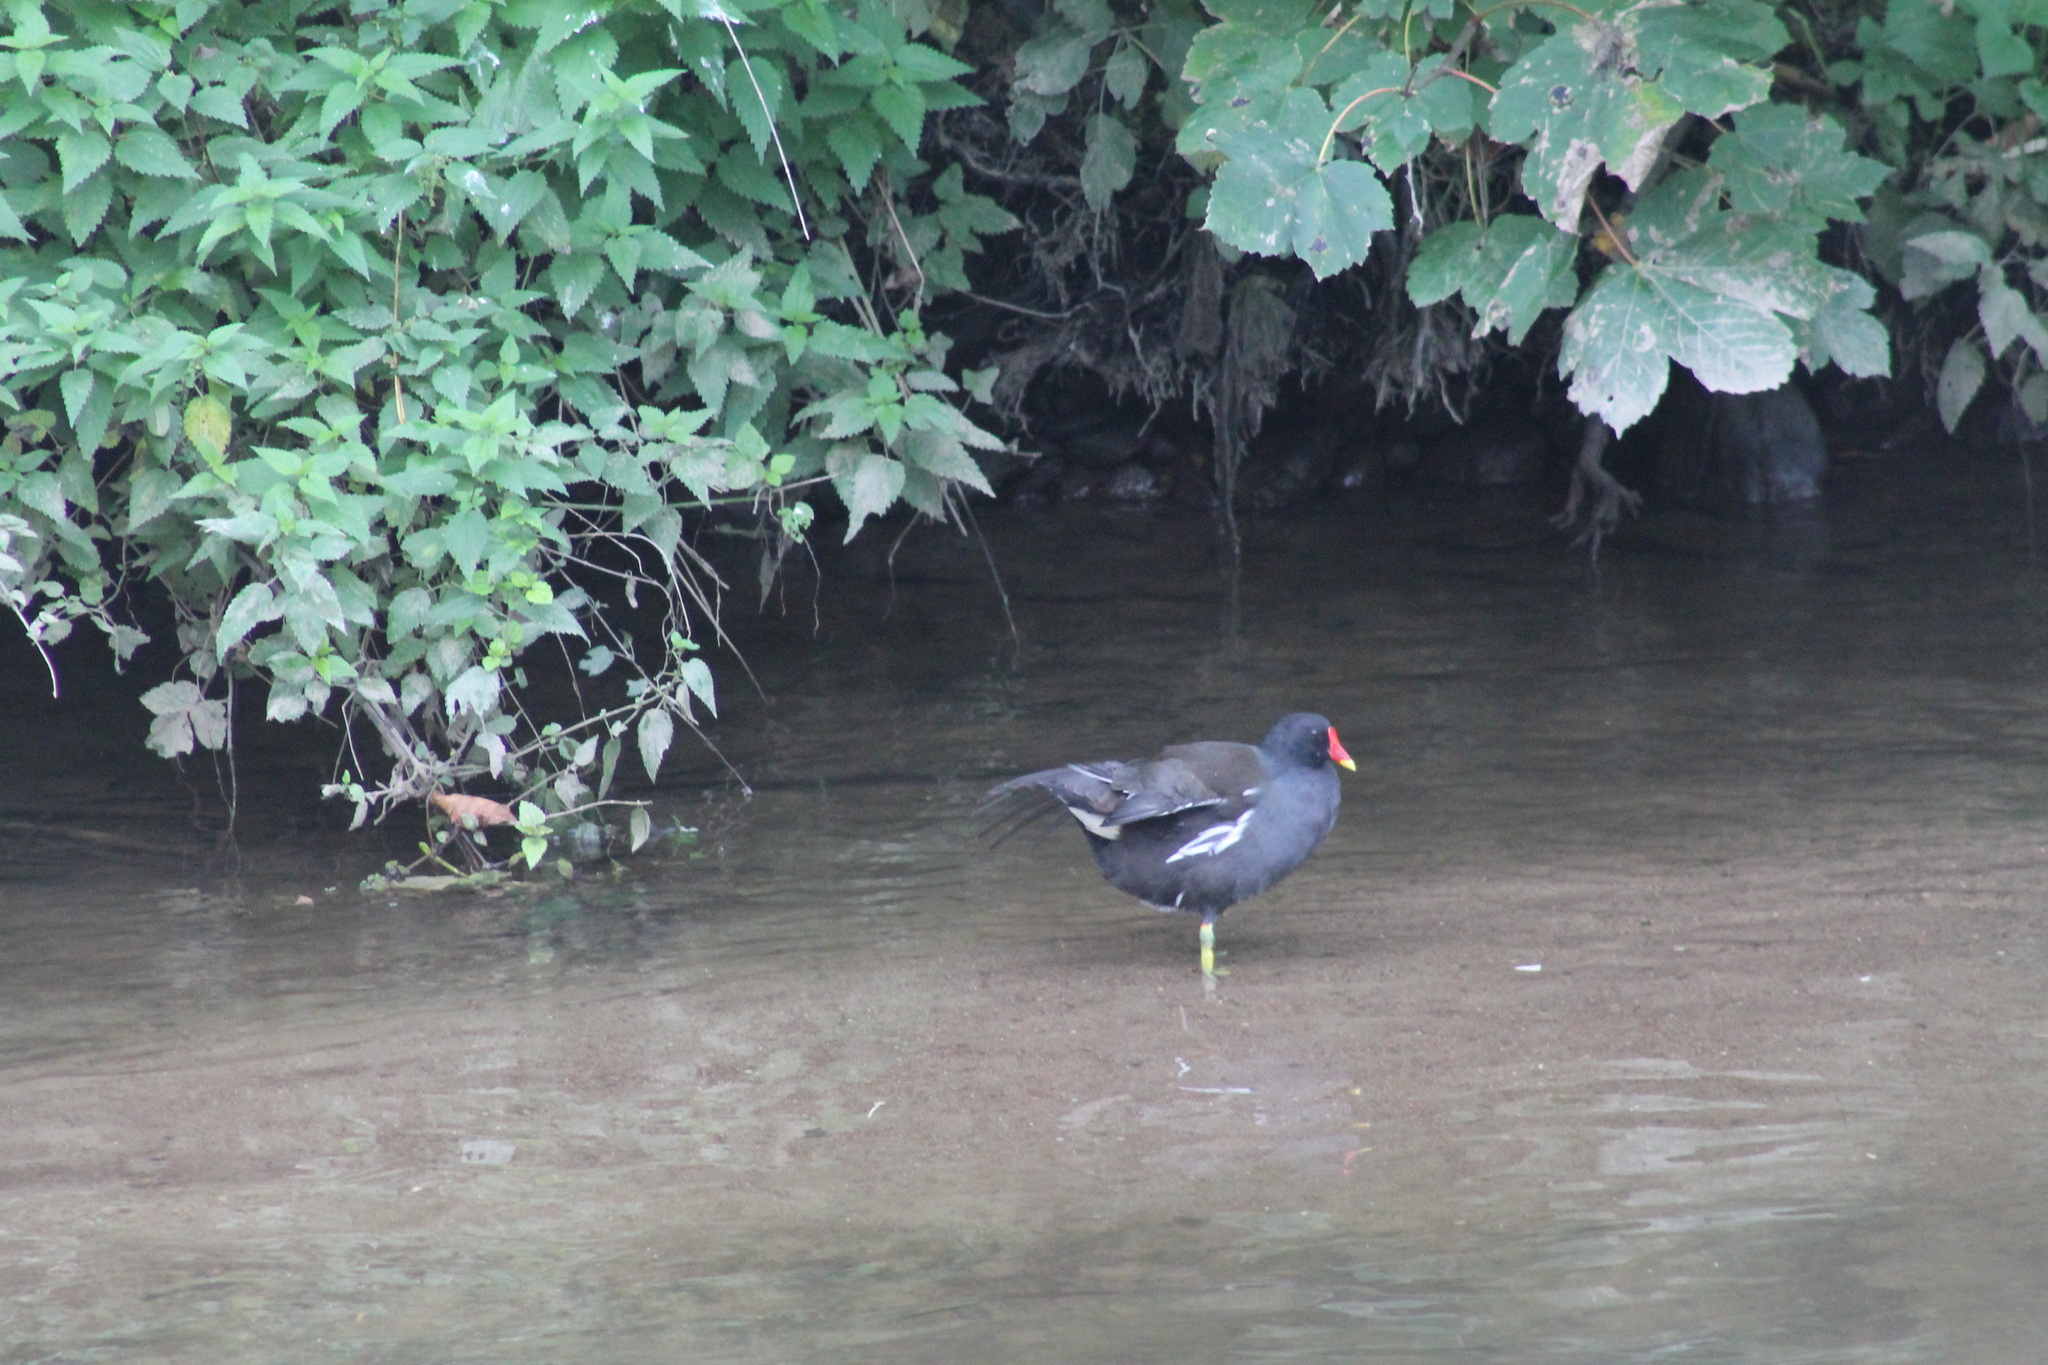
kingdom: Animalia
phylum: Chordata
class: Aves
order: Gruiformes
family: Rallidae
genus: Gallinula
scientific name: Gallinula chloropus
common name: Common moorhen
